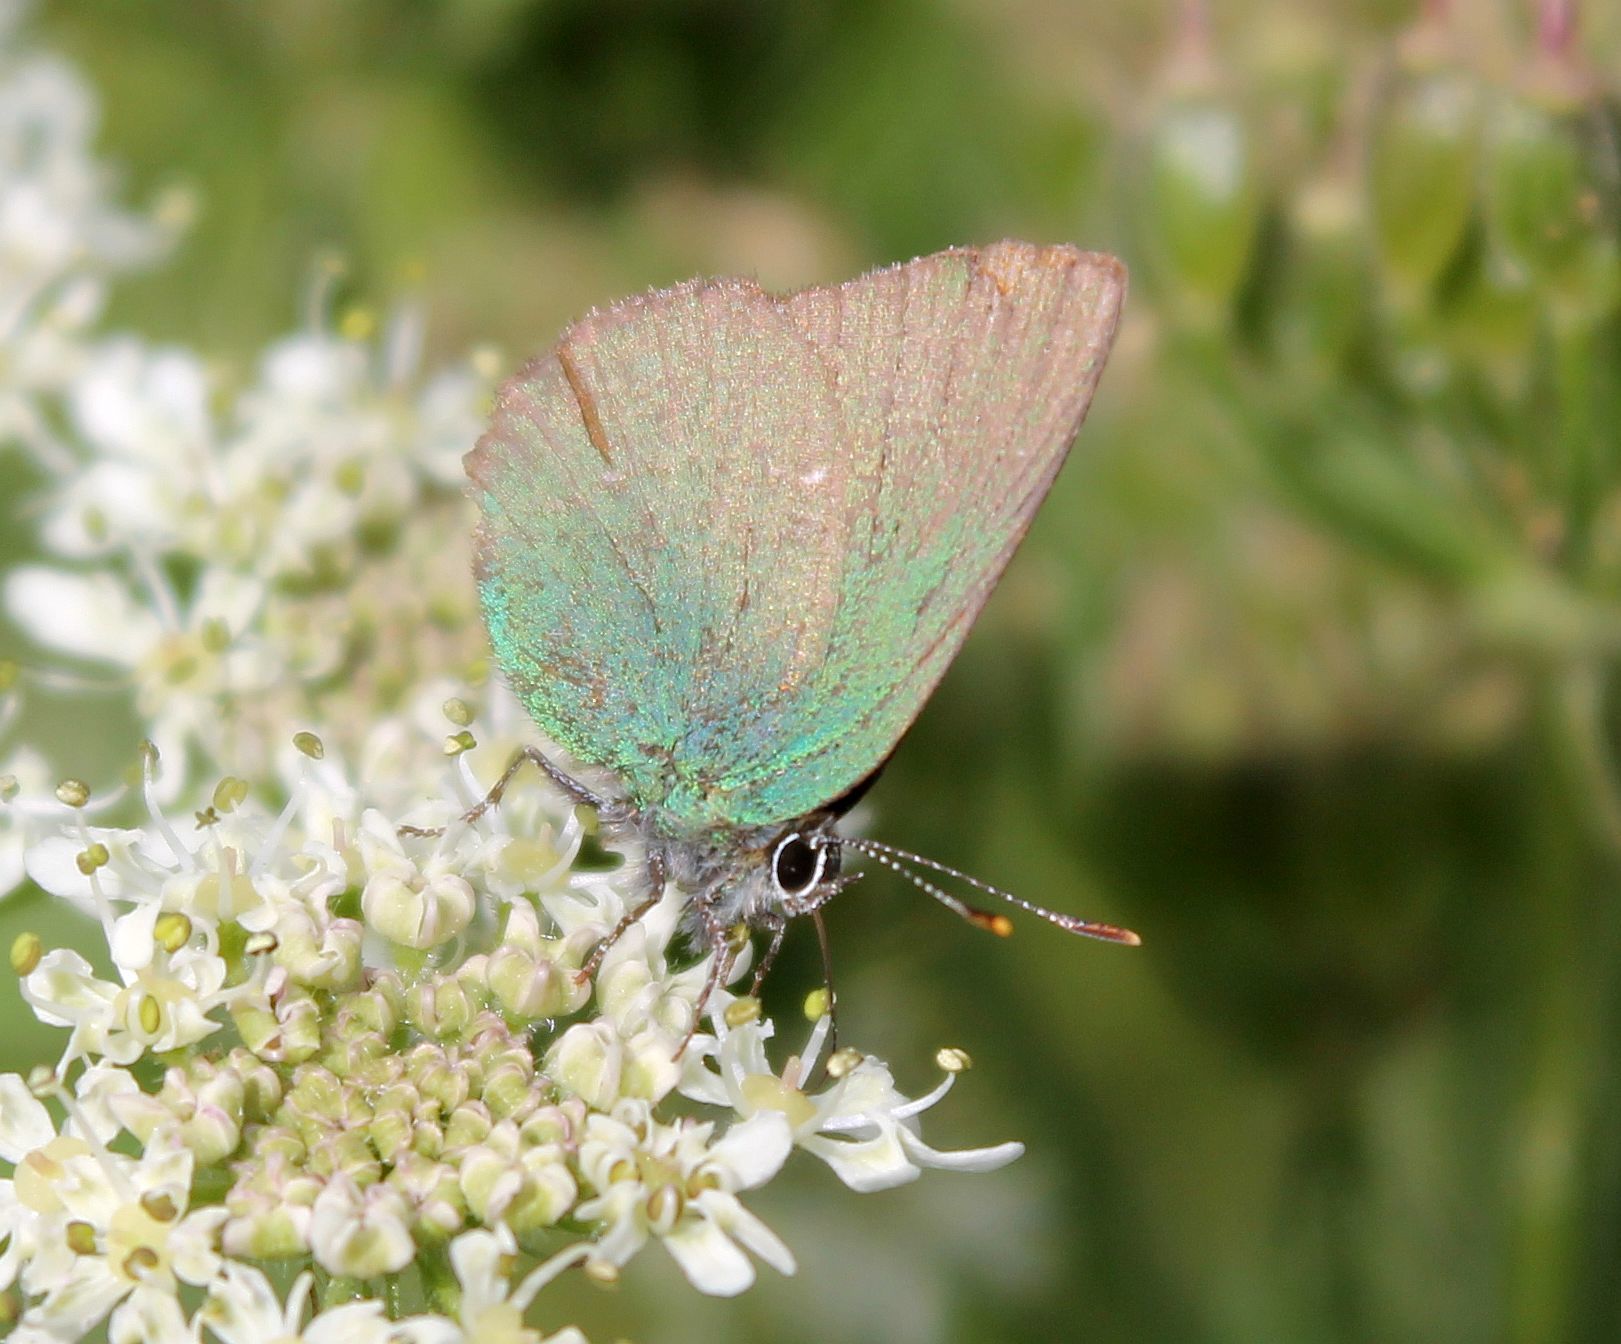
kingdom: Animalia
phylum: Arthropoda
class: Insecta
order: Lepidoptera
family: Lycaenidae
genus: Callophrys
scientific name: Callophrys rubi
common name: Green hairstreak
